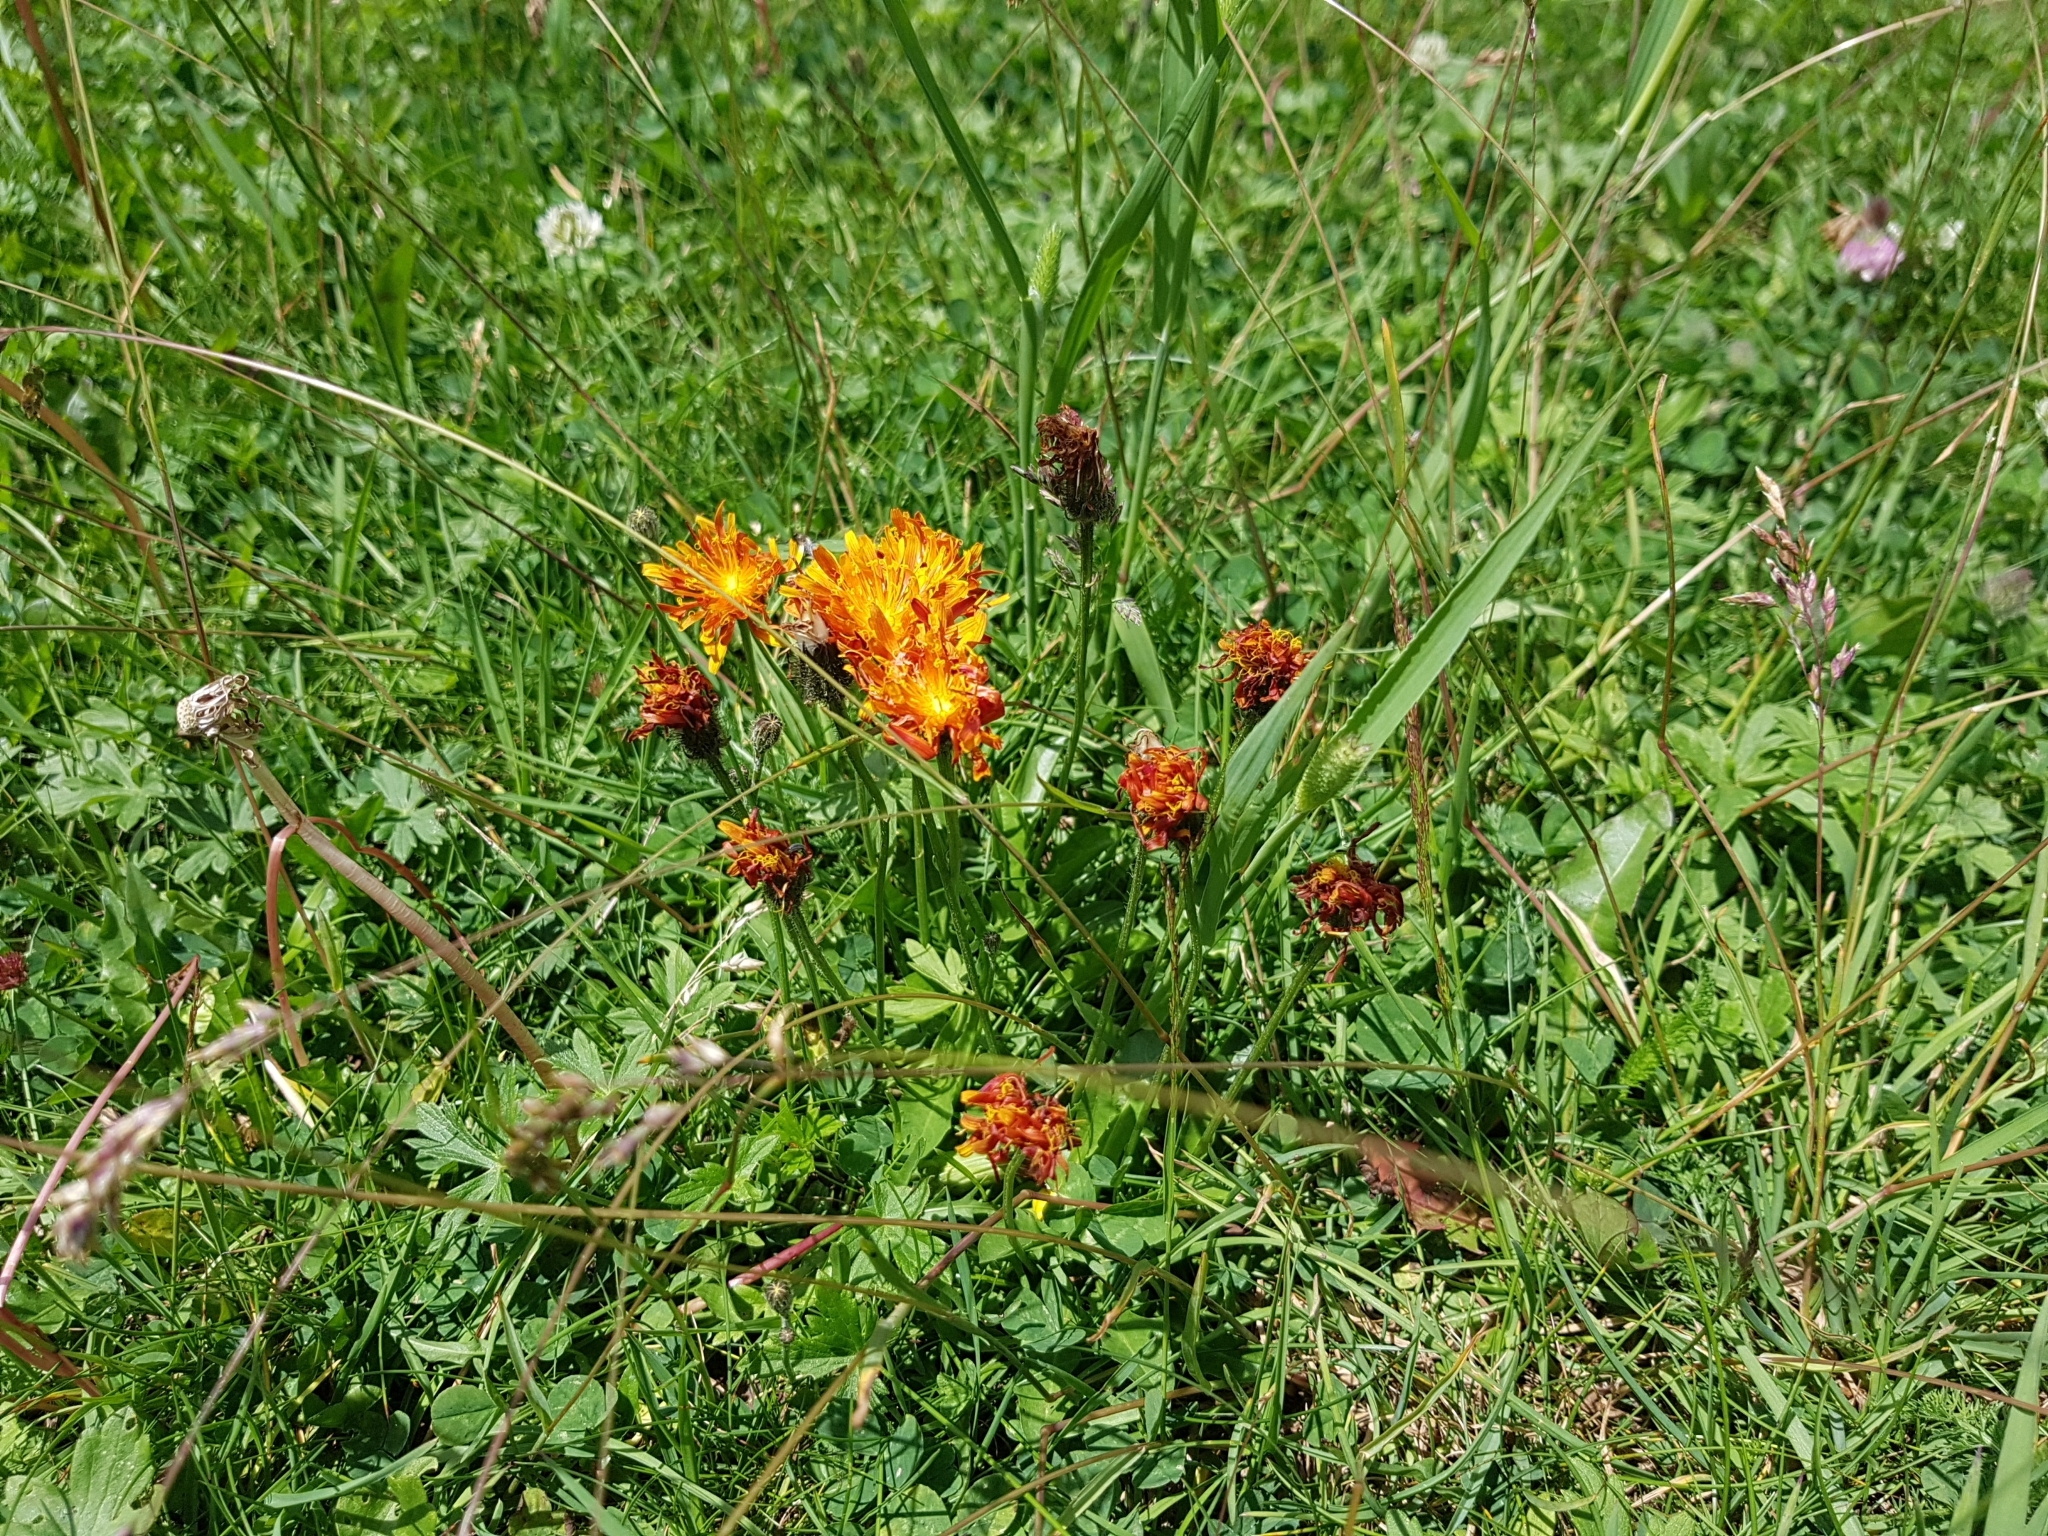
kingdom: Plantae
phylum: Tracheophyta
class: Magnoliopsida
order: Asterales
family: Asteraceae
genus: Crepis
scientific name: Crepis aurea
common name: Golden hawk's-beard
